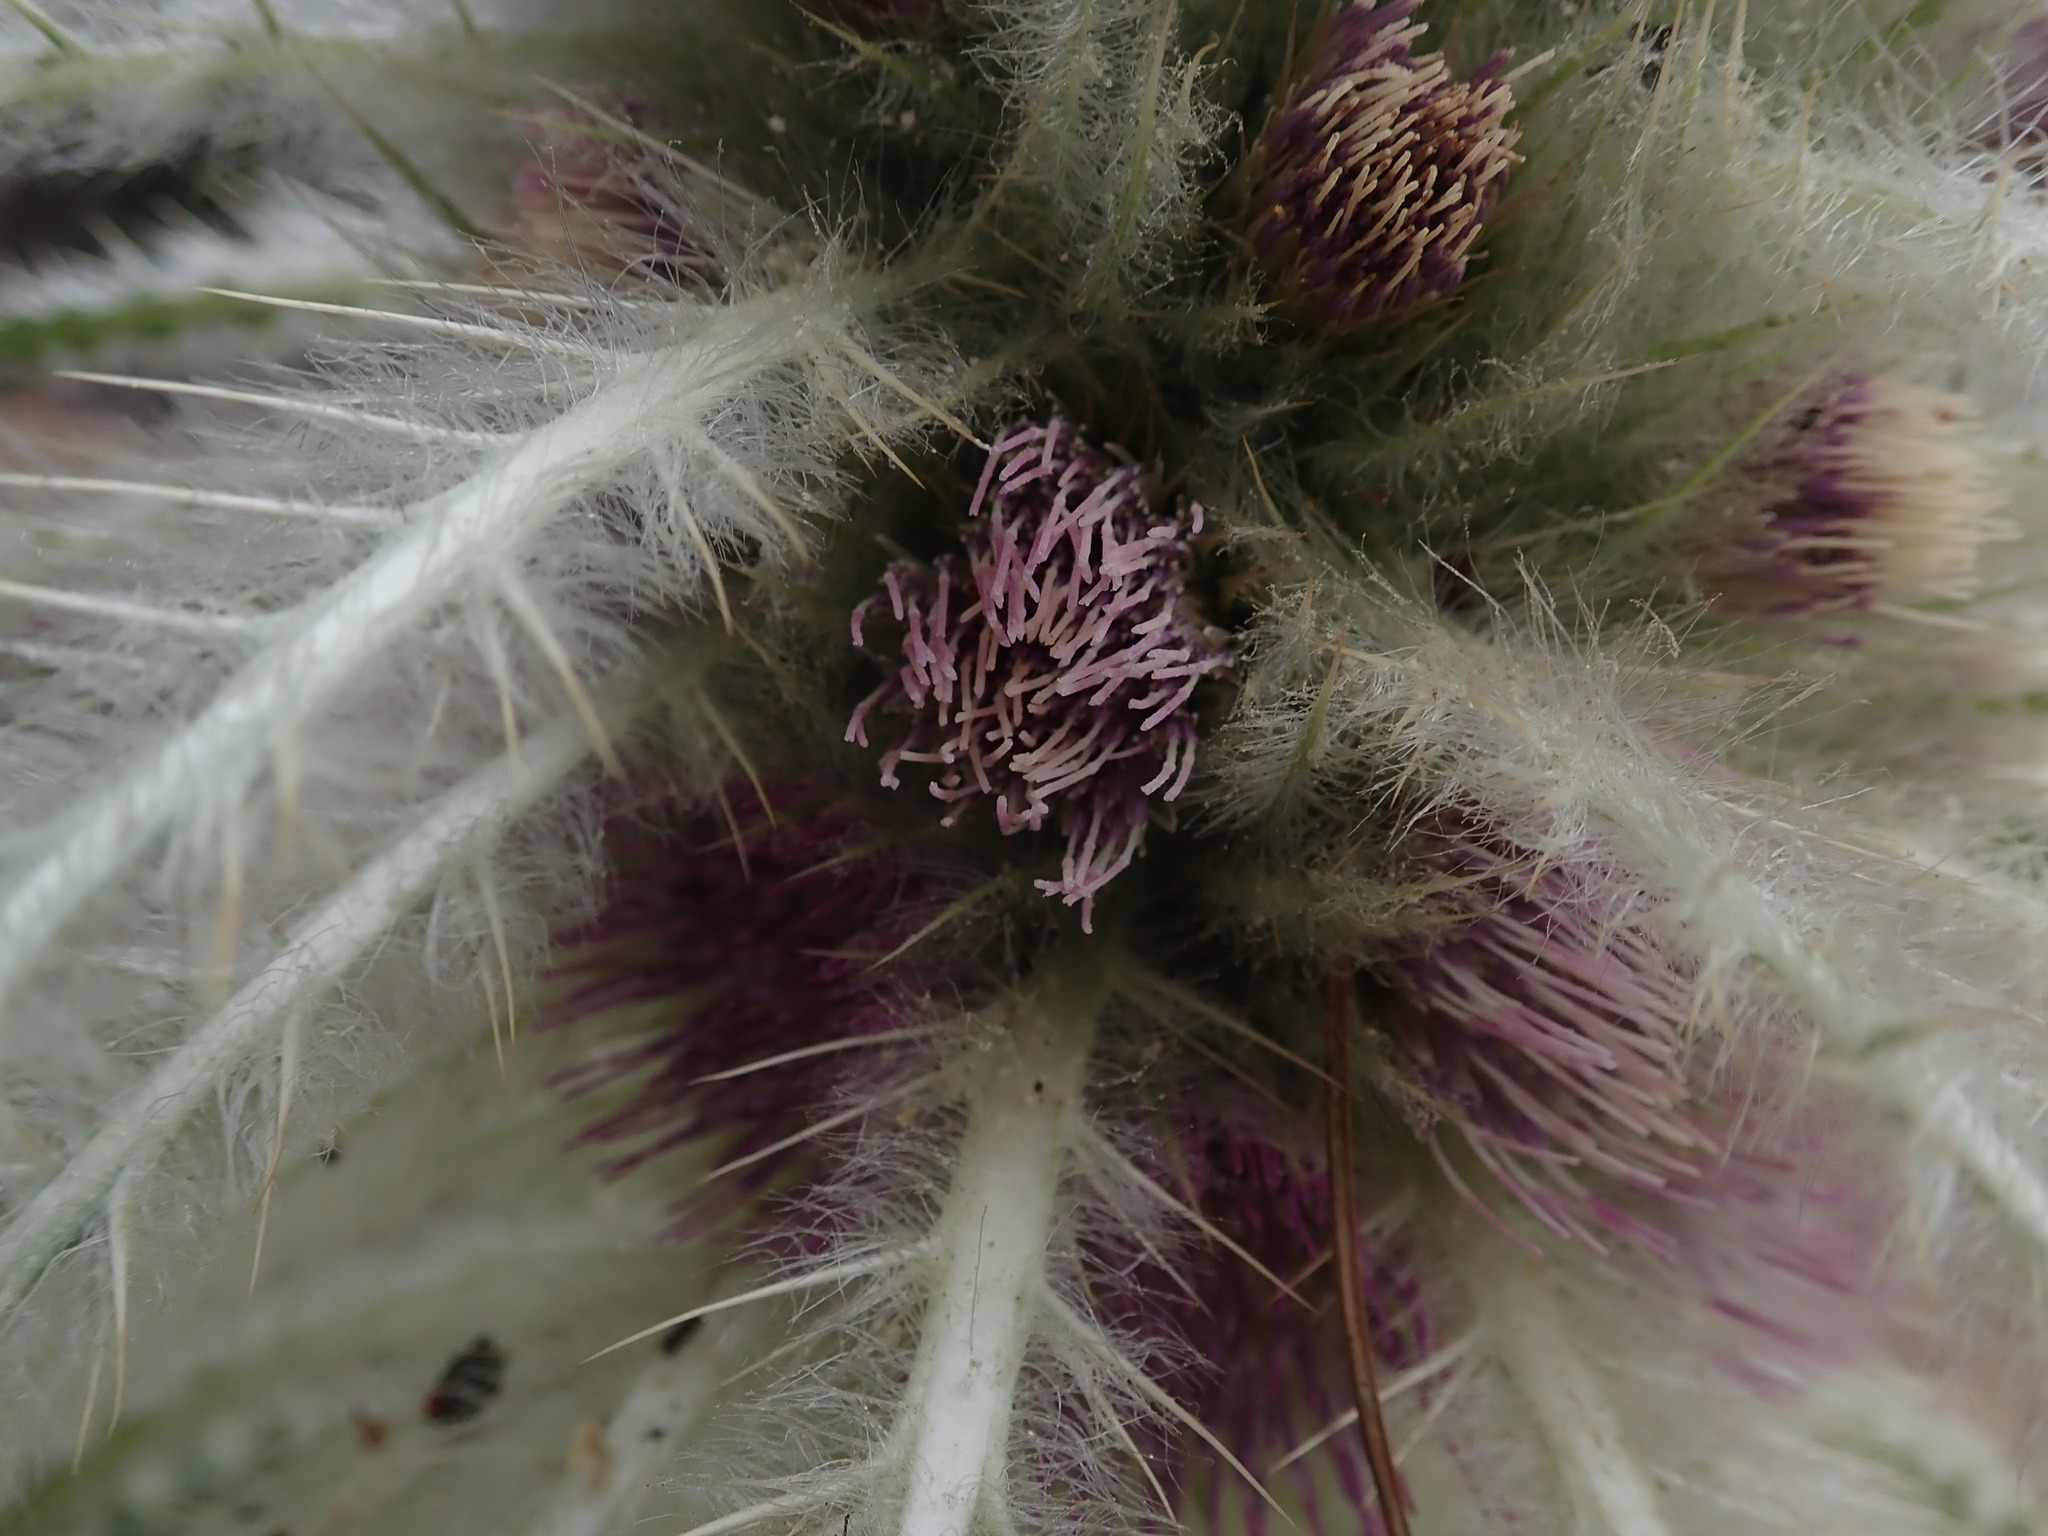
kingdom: Plantae
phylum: Tracheophyta
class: Magnoliopsida
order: Asterales
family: Asteraceae
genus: Cirsium
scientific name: Cirsium scariosum
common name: Meadow thistle
